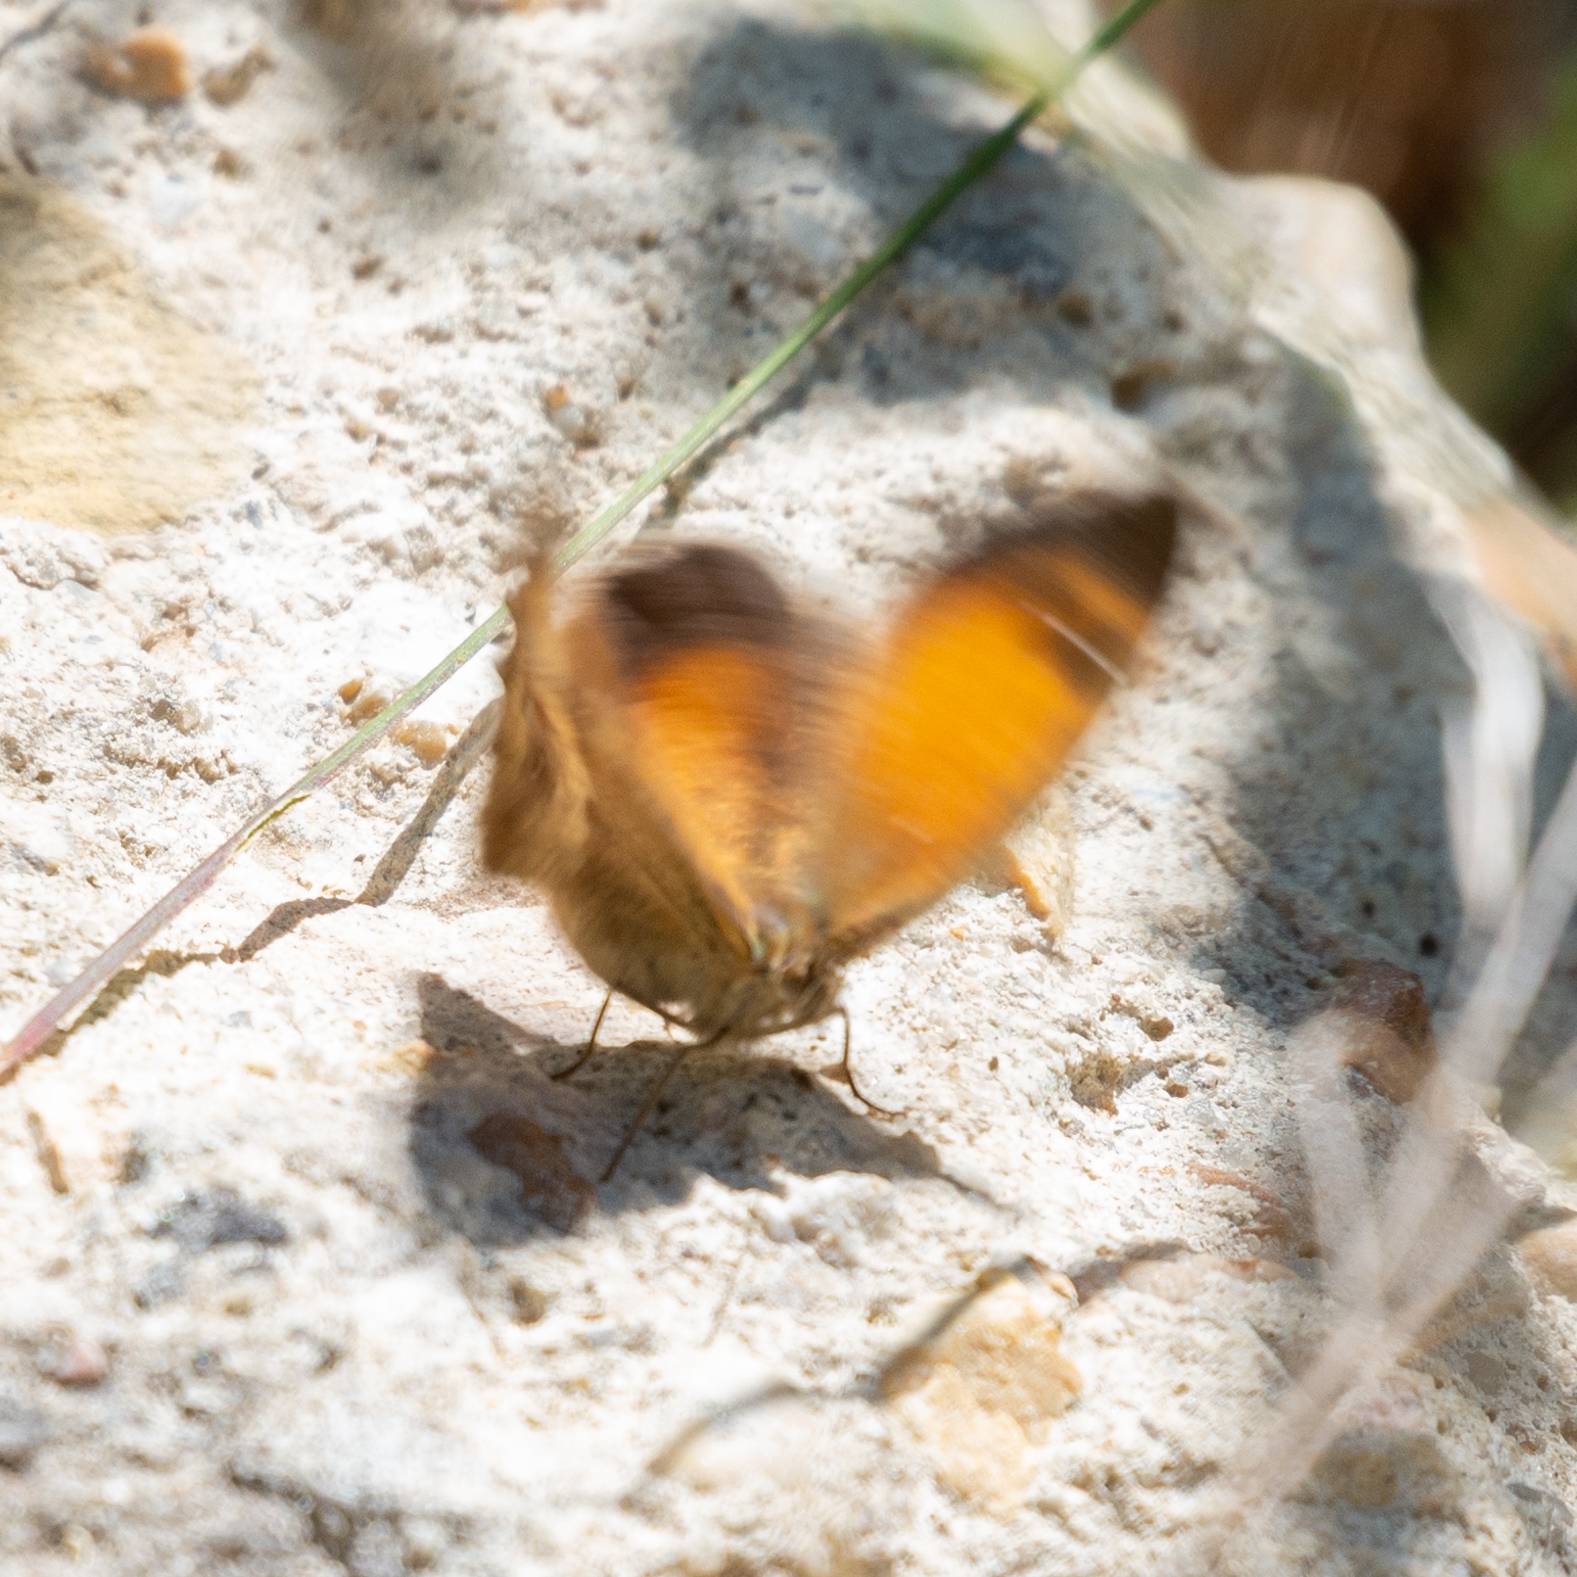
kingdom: Animalia
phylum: Arthropoda
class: Insecta
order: Lepidoptera
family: Nymphalidae
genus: Pyronia
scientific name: Pyronia tithonus
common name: Gatekeeper
